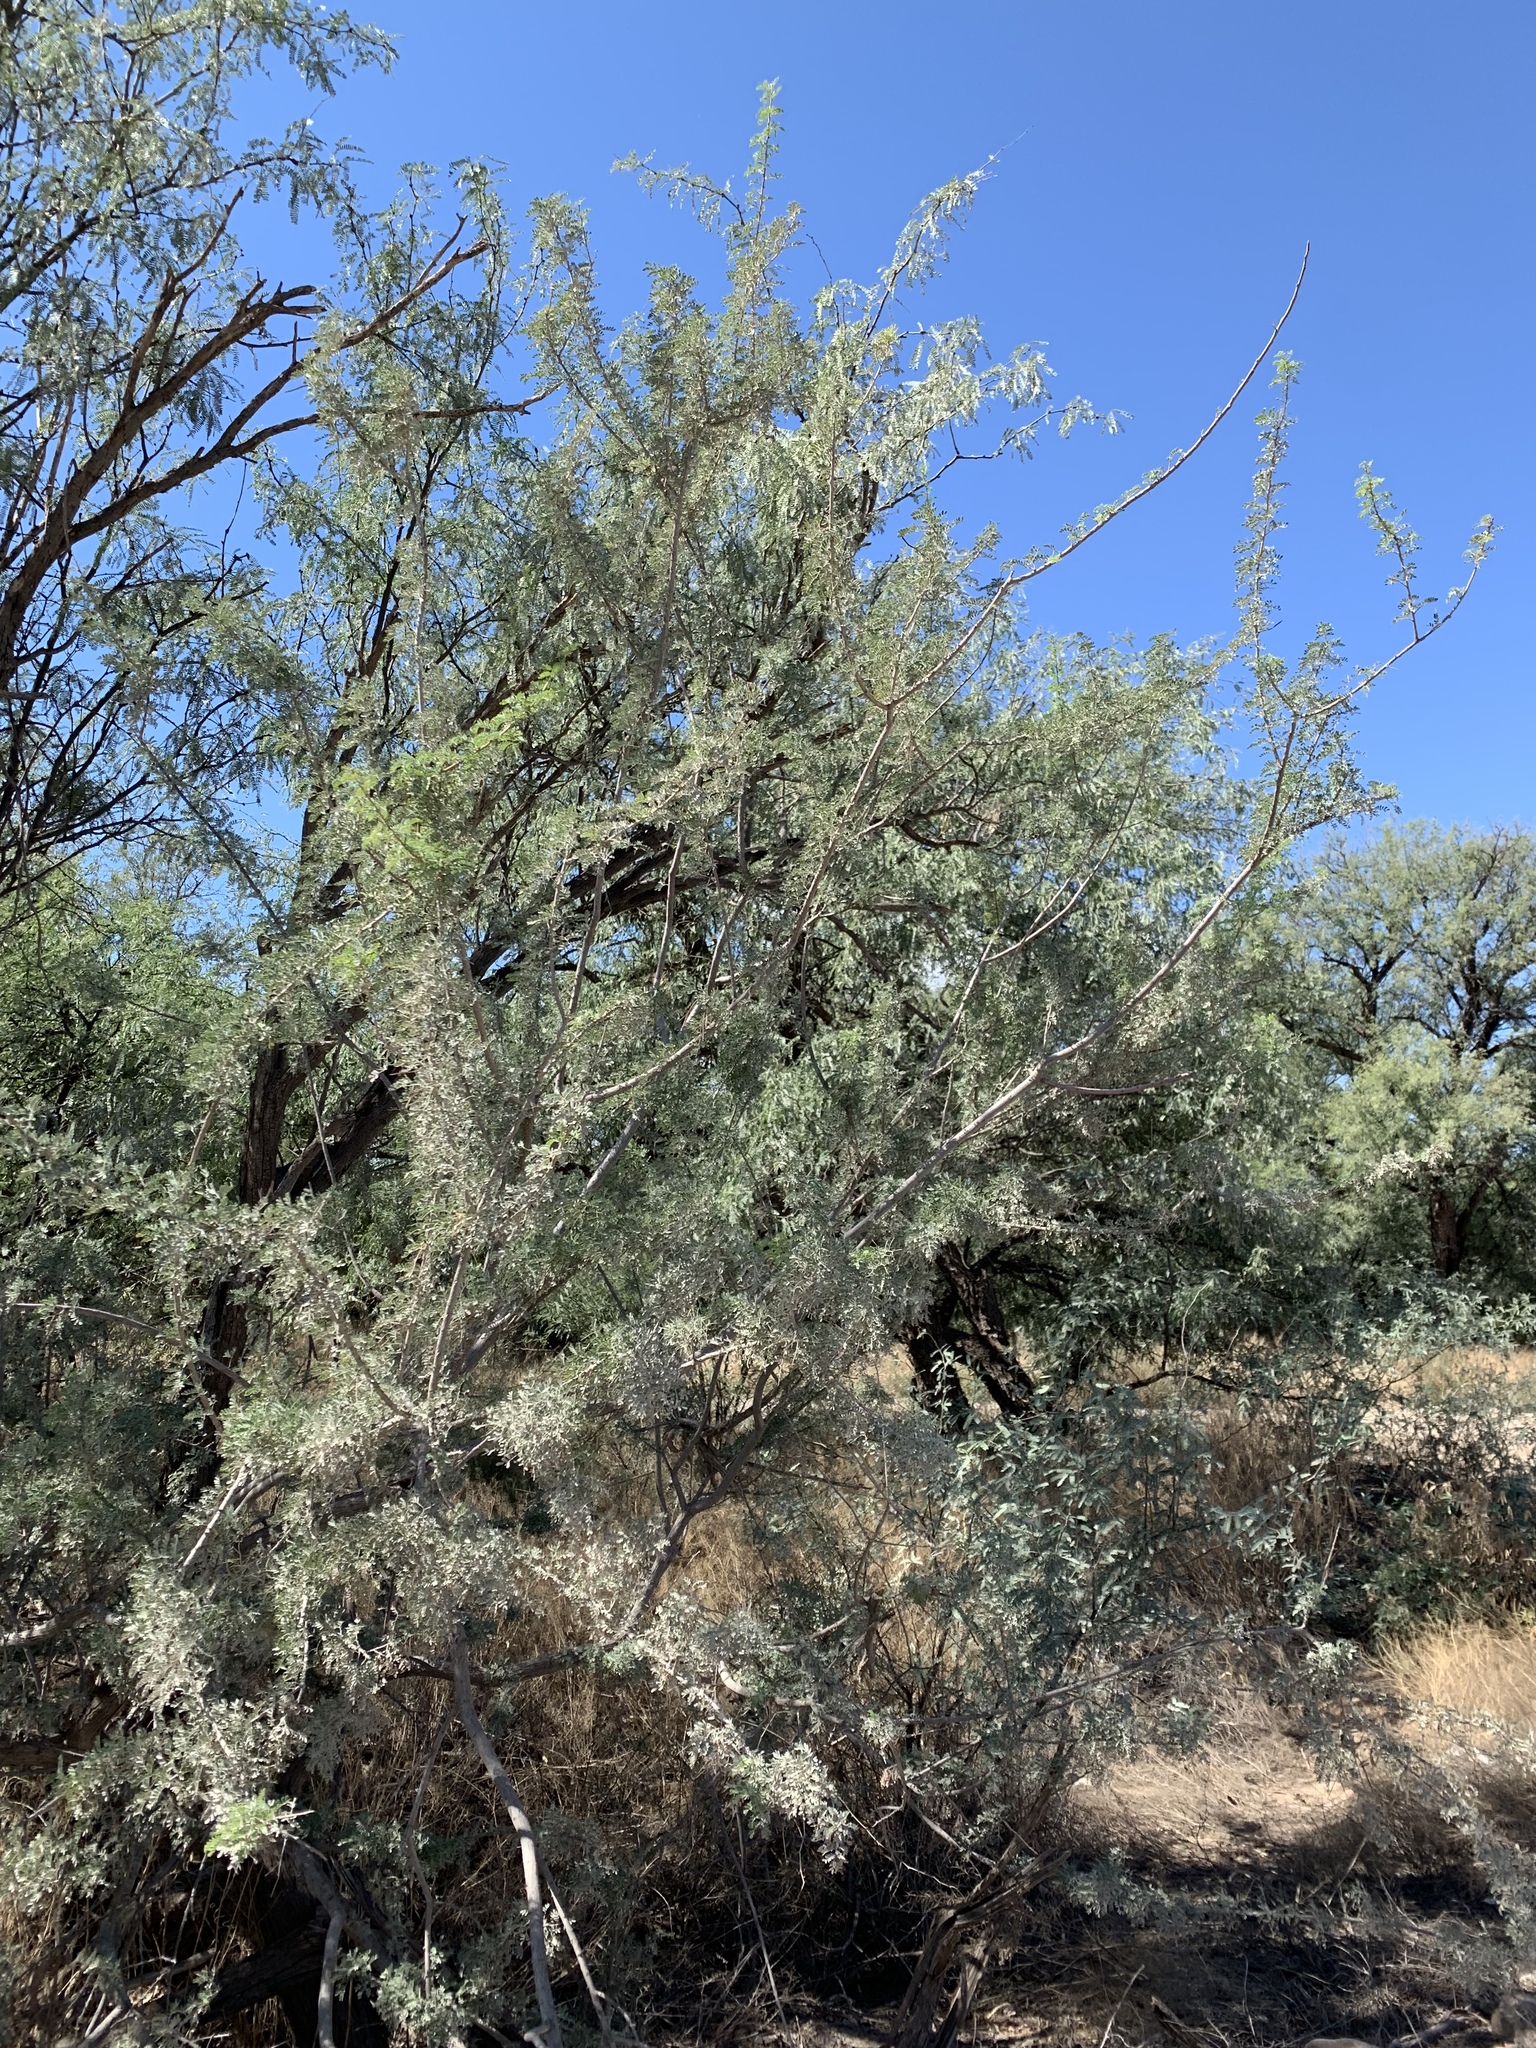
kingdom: Plantae
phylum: Tracheophyta
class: Magnoliopsida
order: Fabales
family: Fabaceae
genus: Senegalia
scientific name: Senegalia greggii
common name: Texas-mimosa
